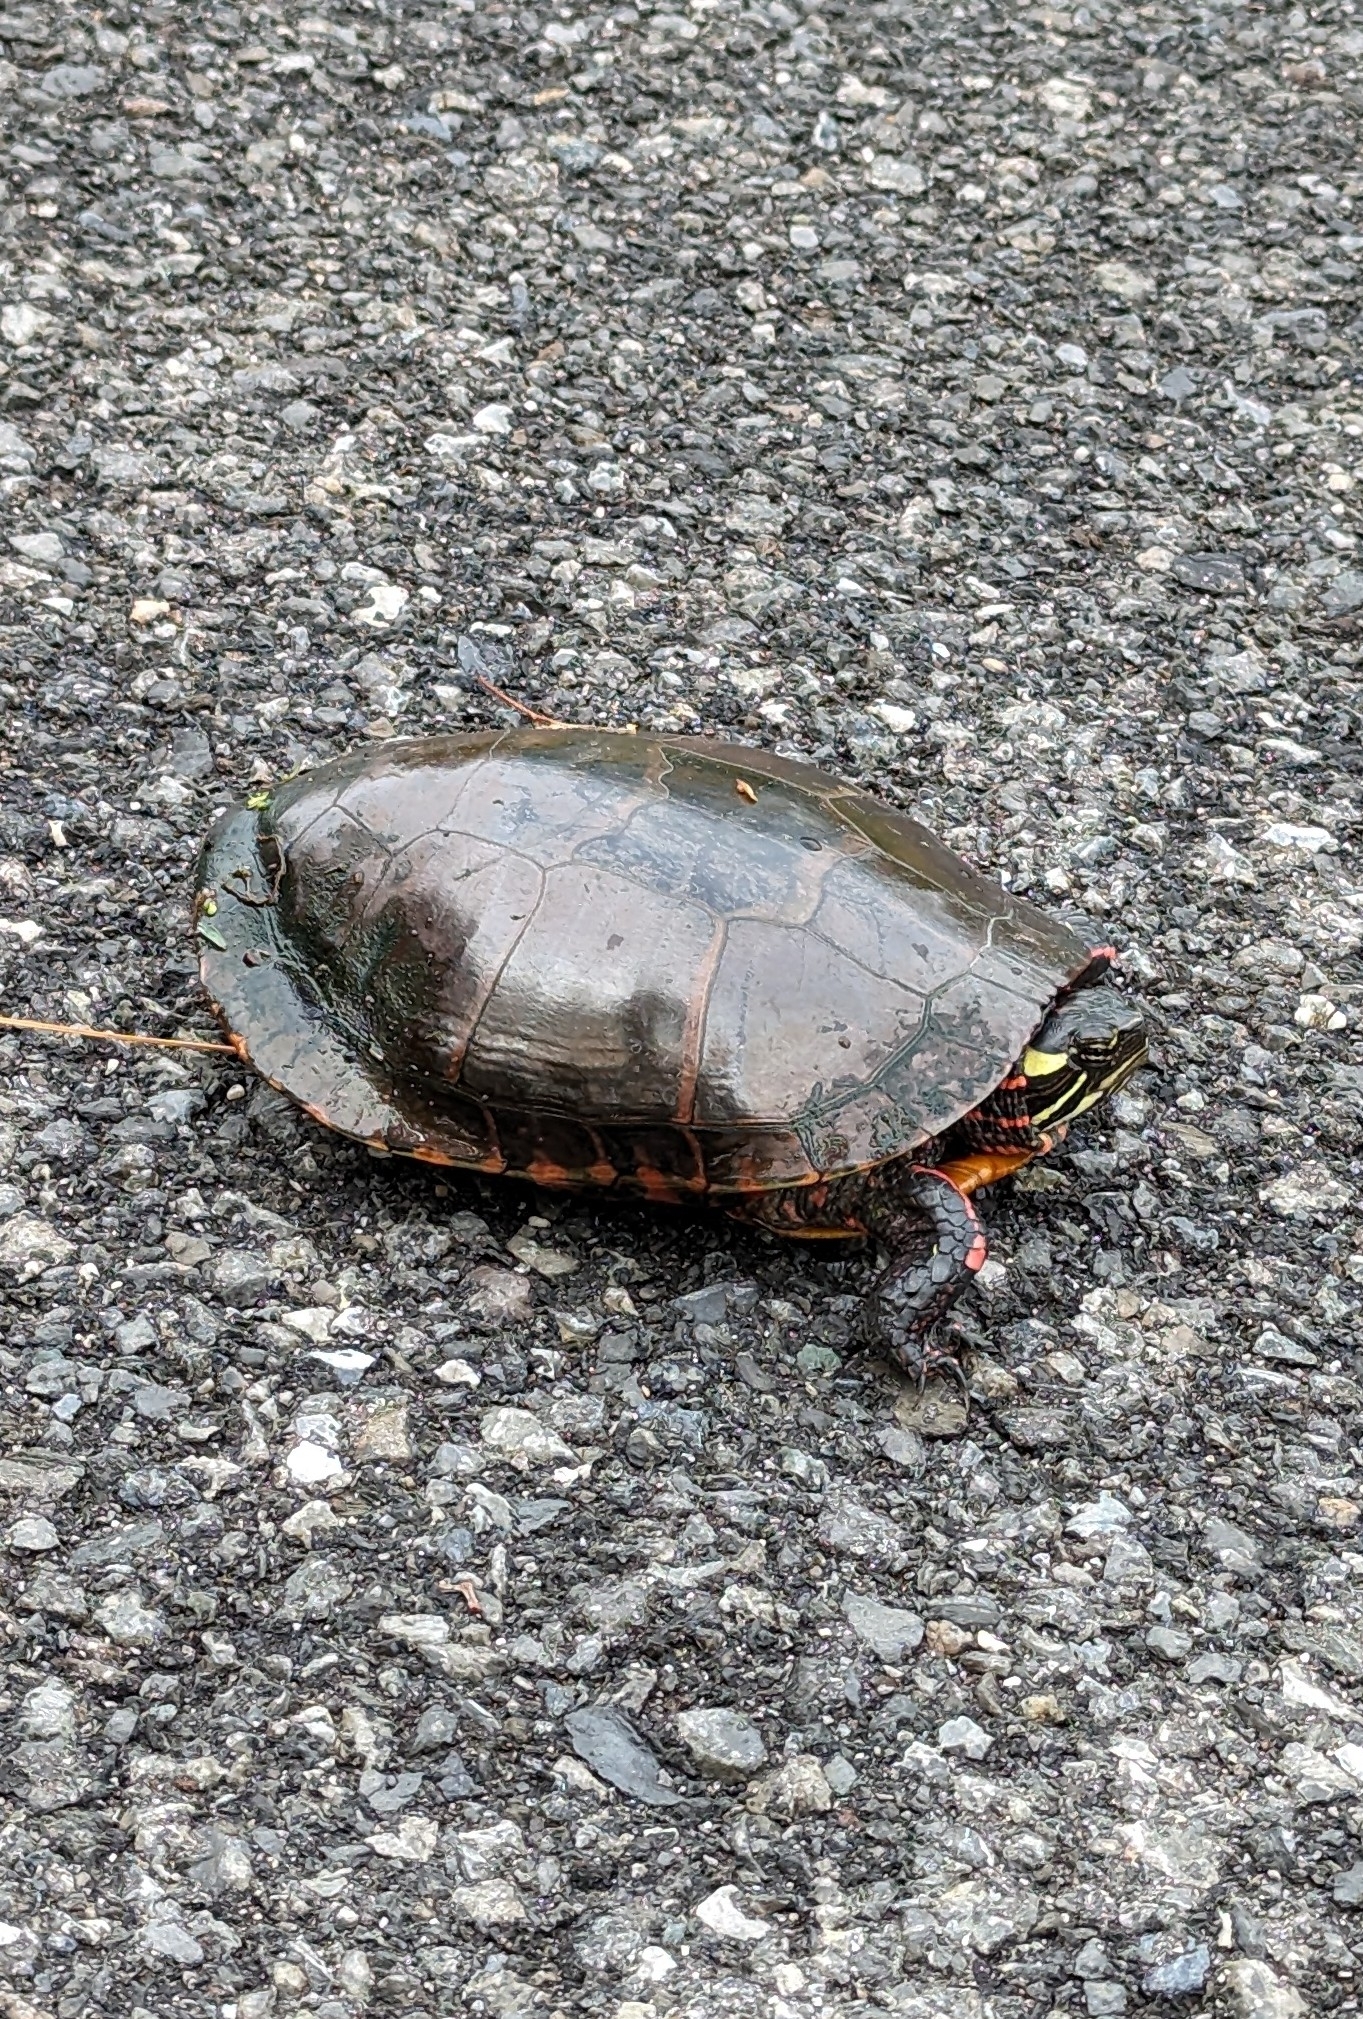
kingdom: Animalia
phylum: Chordata
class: Testudines
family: Emydidae
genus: Chrysemys
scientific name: Chrysemys picta
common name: Painted turtle
